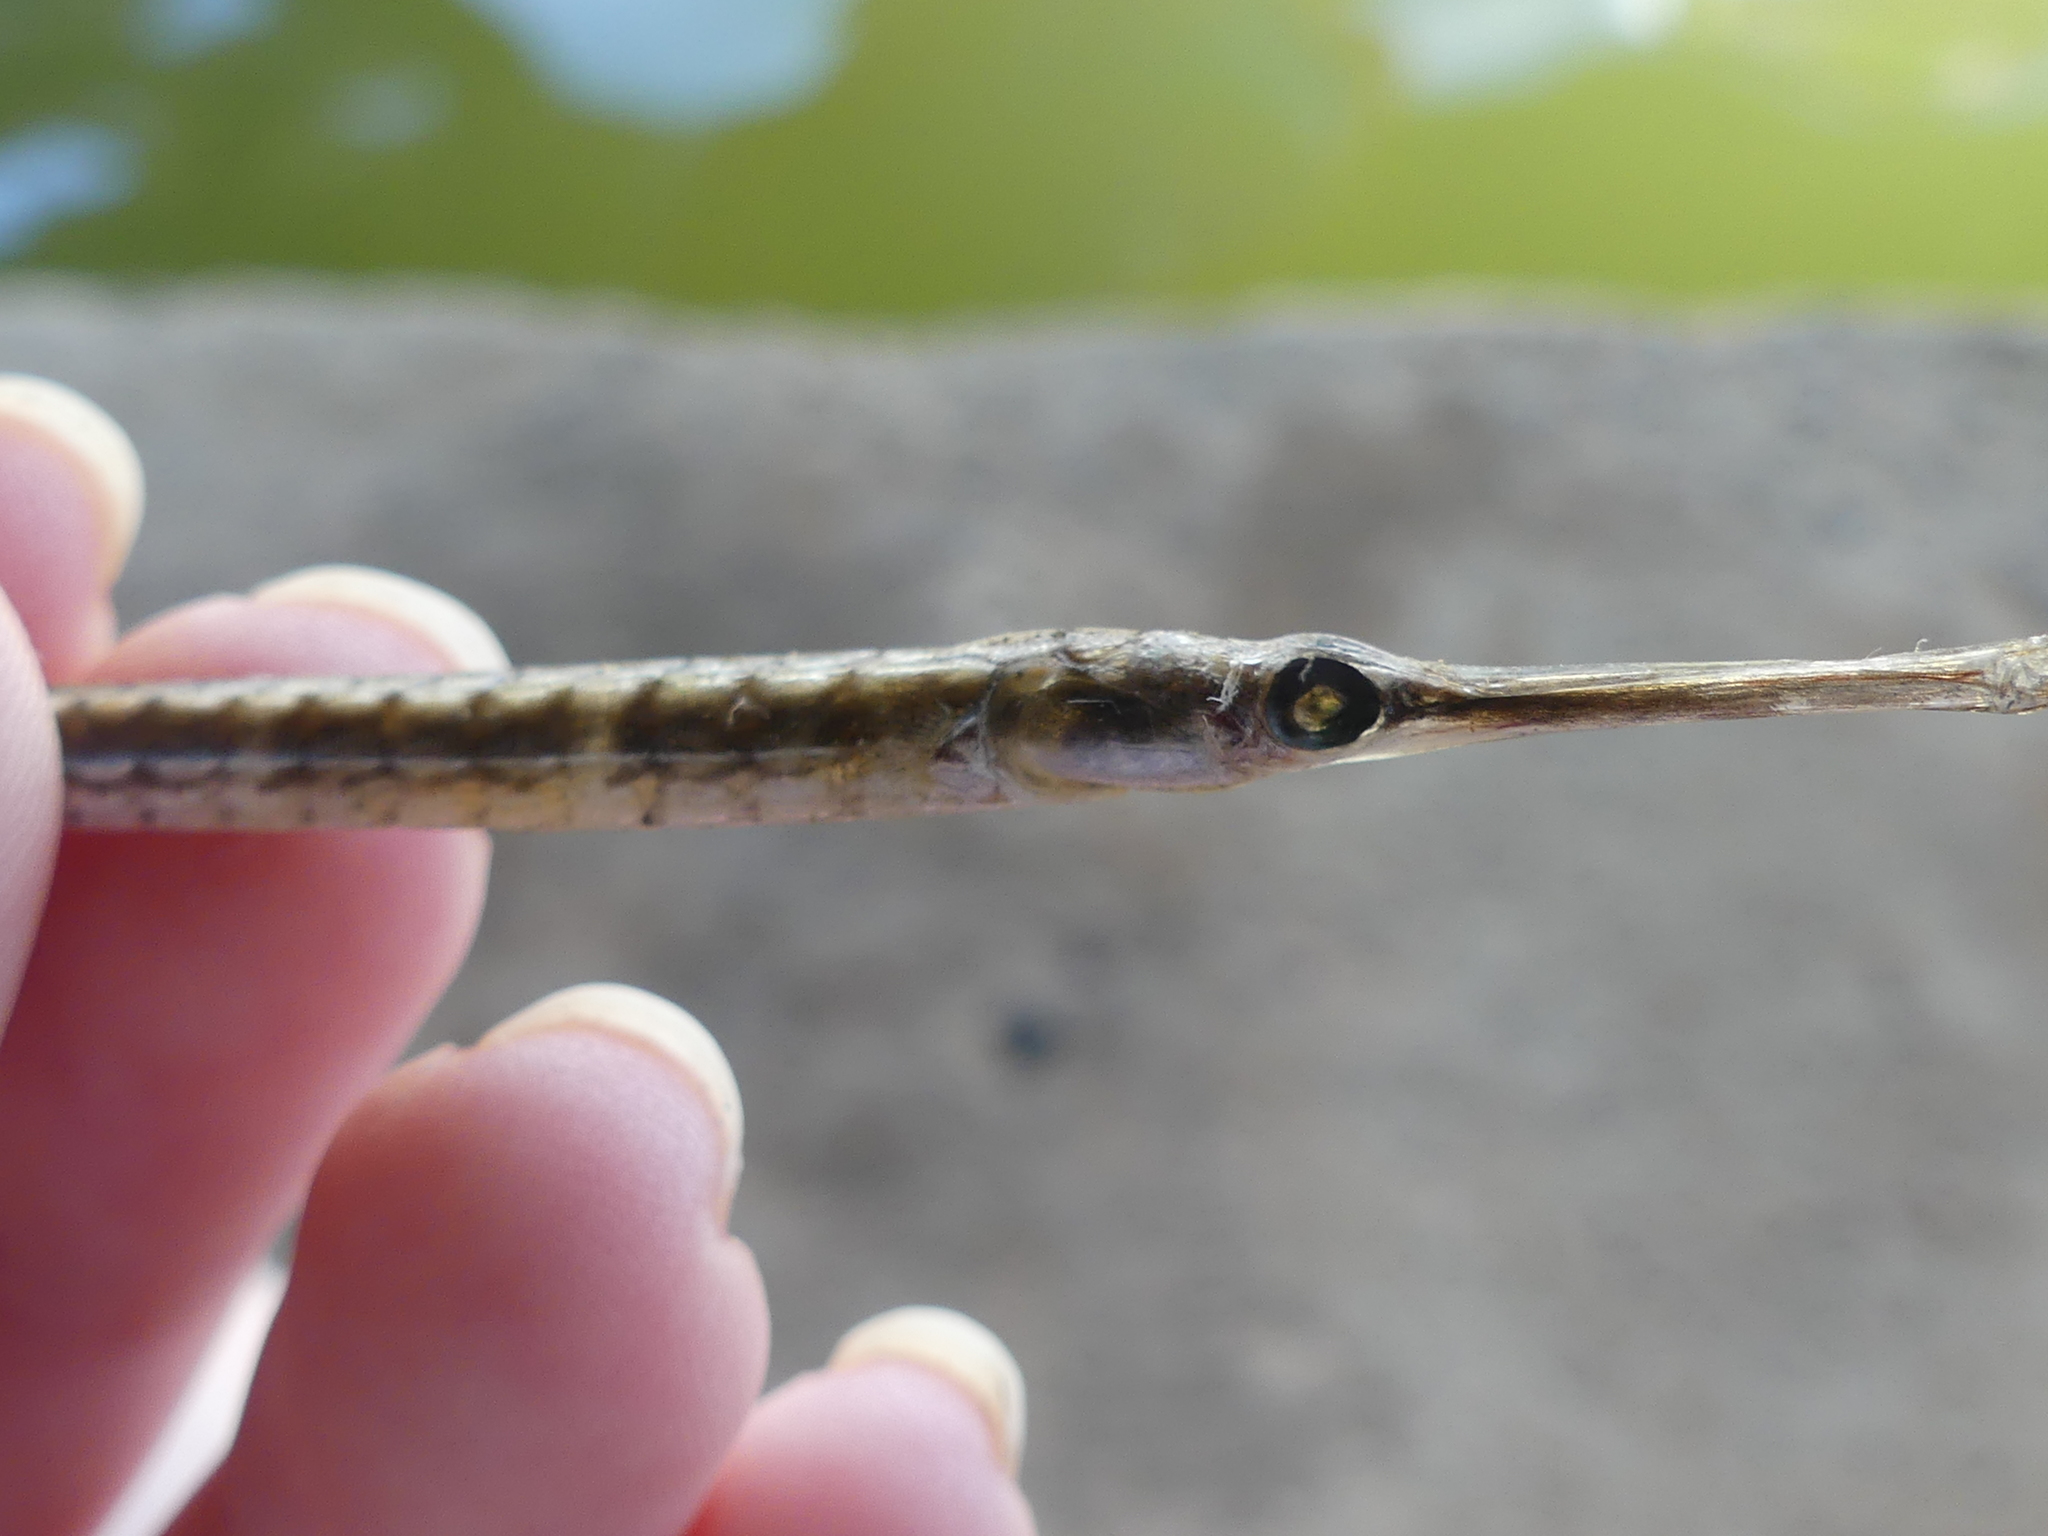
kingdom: Animalia
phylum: Chordata
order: Syngnathiformes
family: Syngnathidae
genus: Syngnathus
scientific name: Syngnathus louisianae
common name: Chain pipefish
